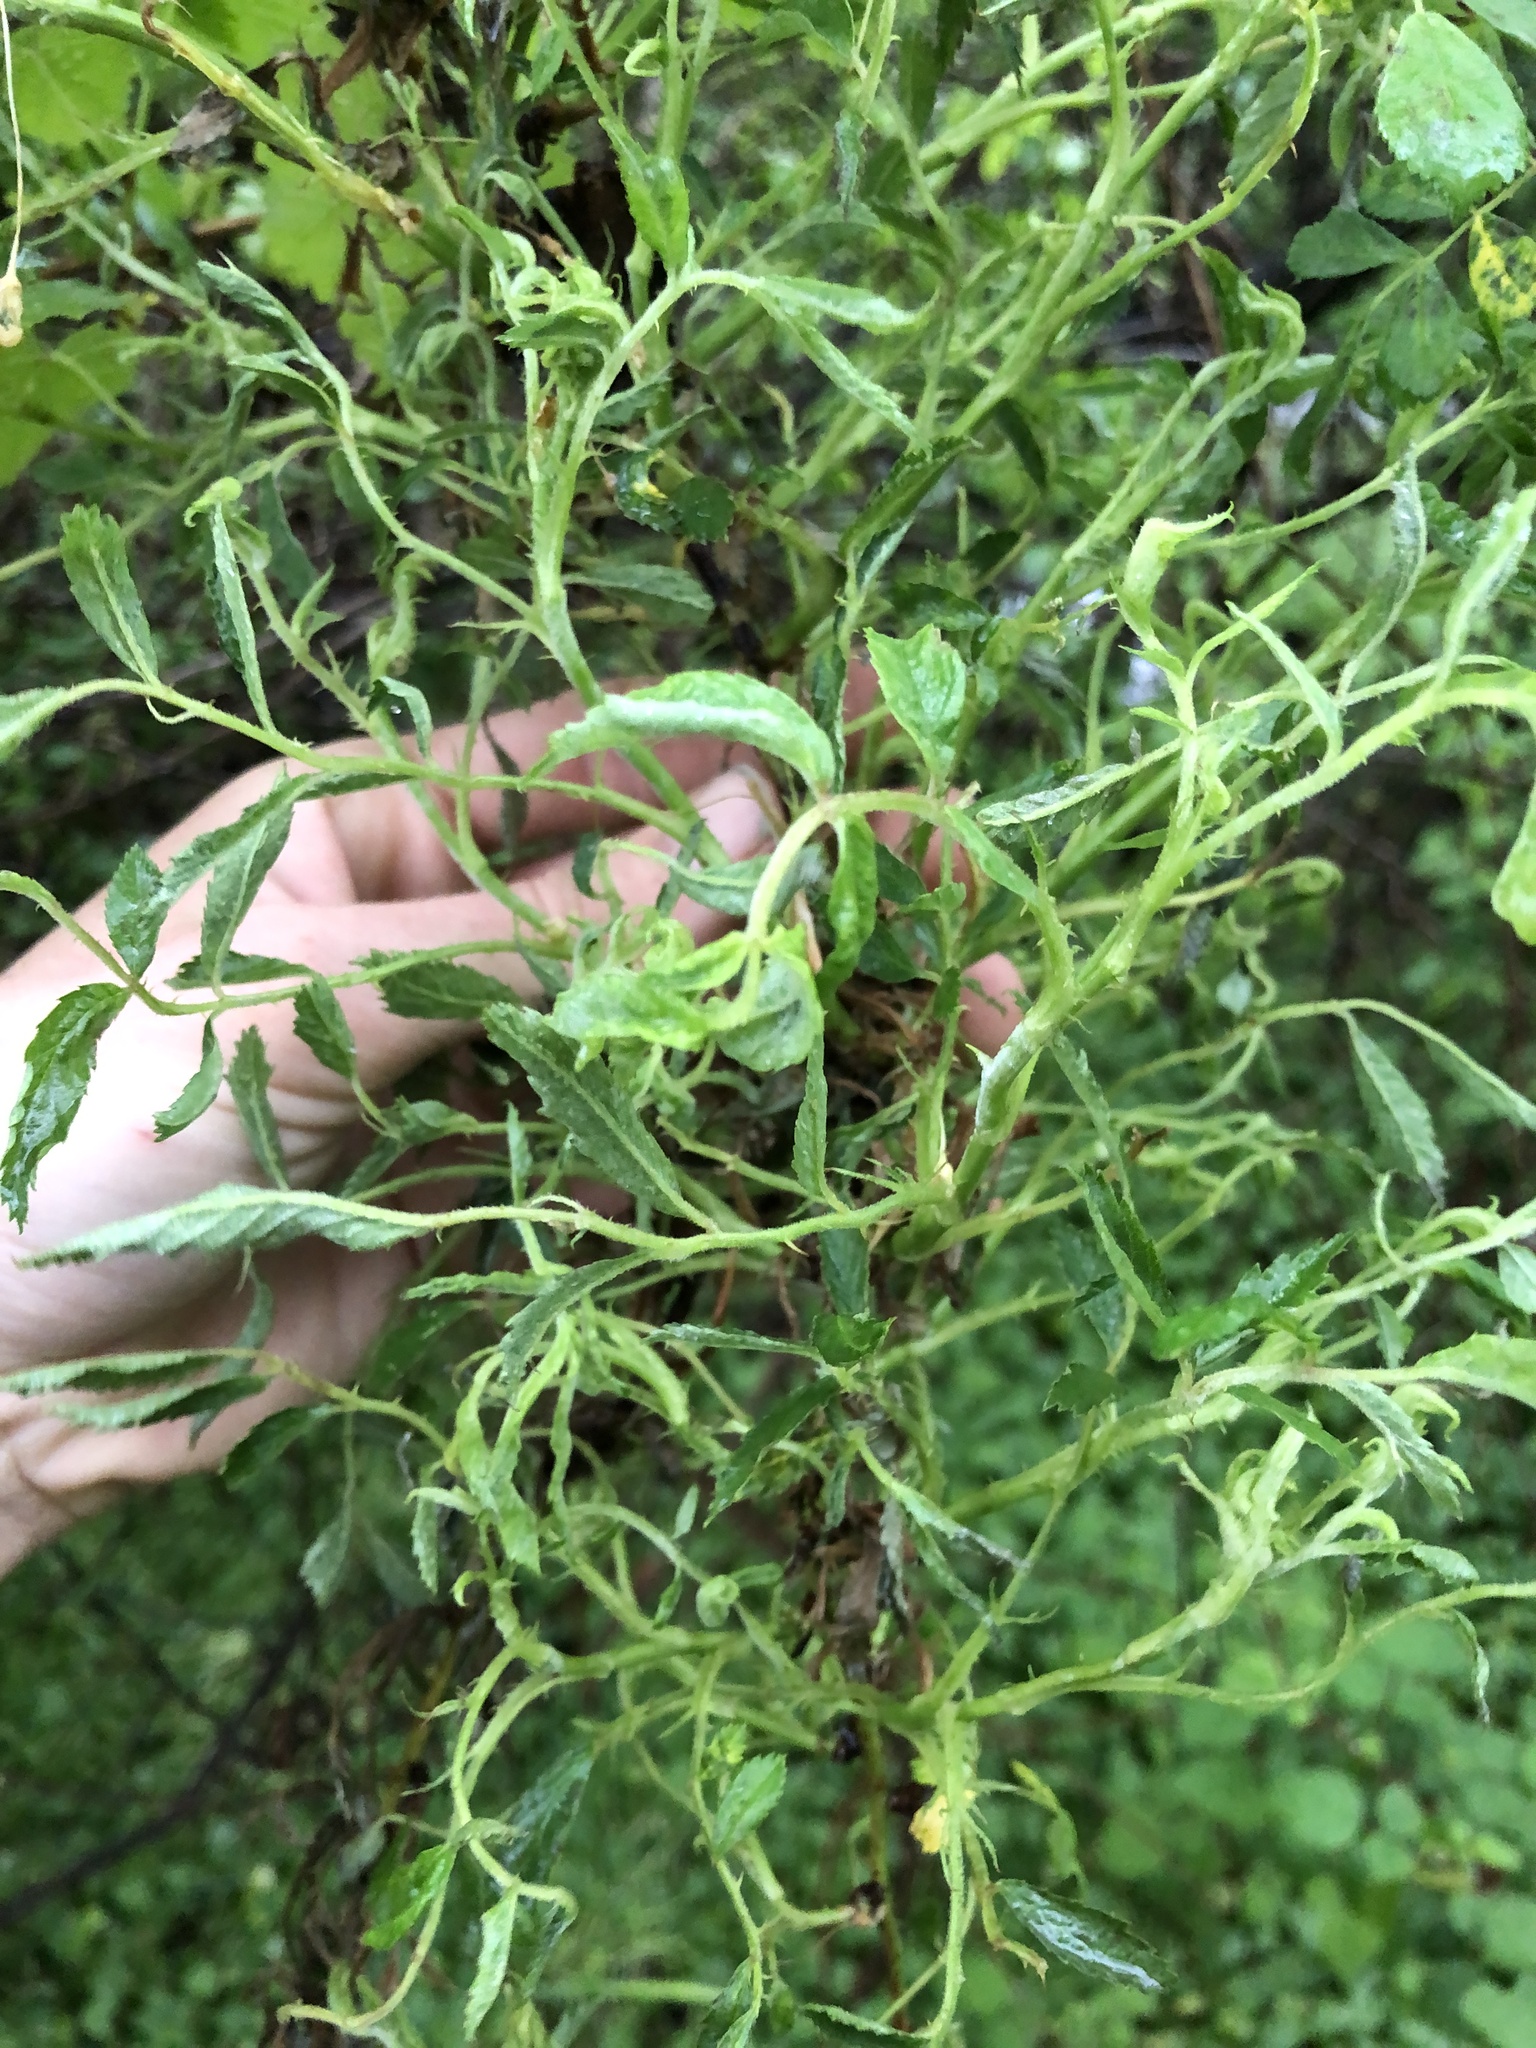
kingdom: Viruses
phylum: Negarnaviricota
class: Ellioviricetes
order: Bunyavirales
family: Fimoviridae
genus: Emaravirus
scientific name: Emaravirus rosae
